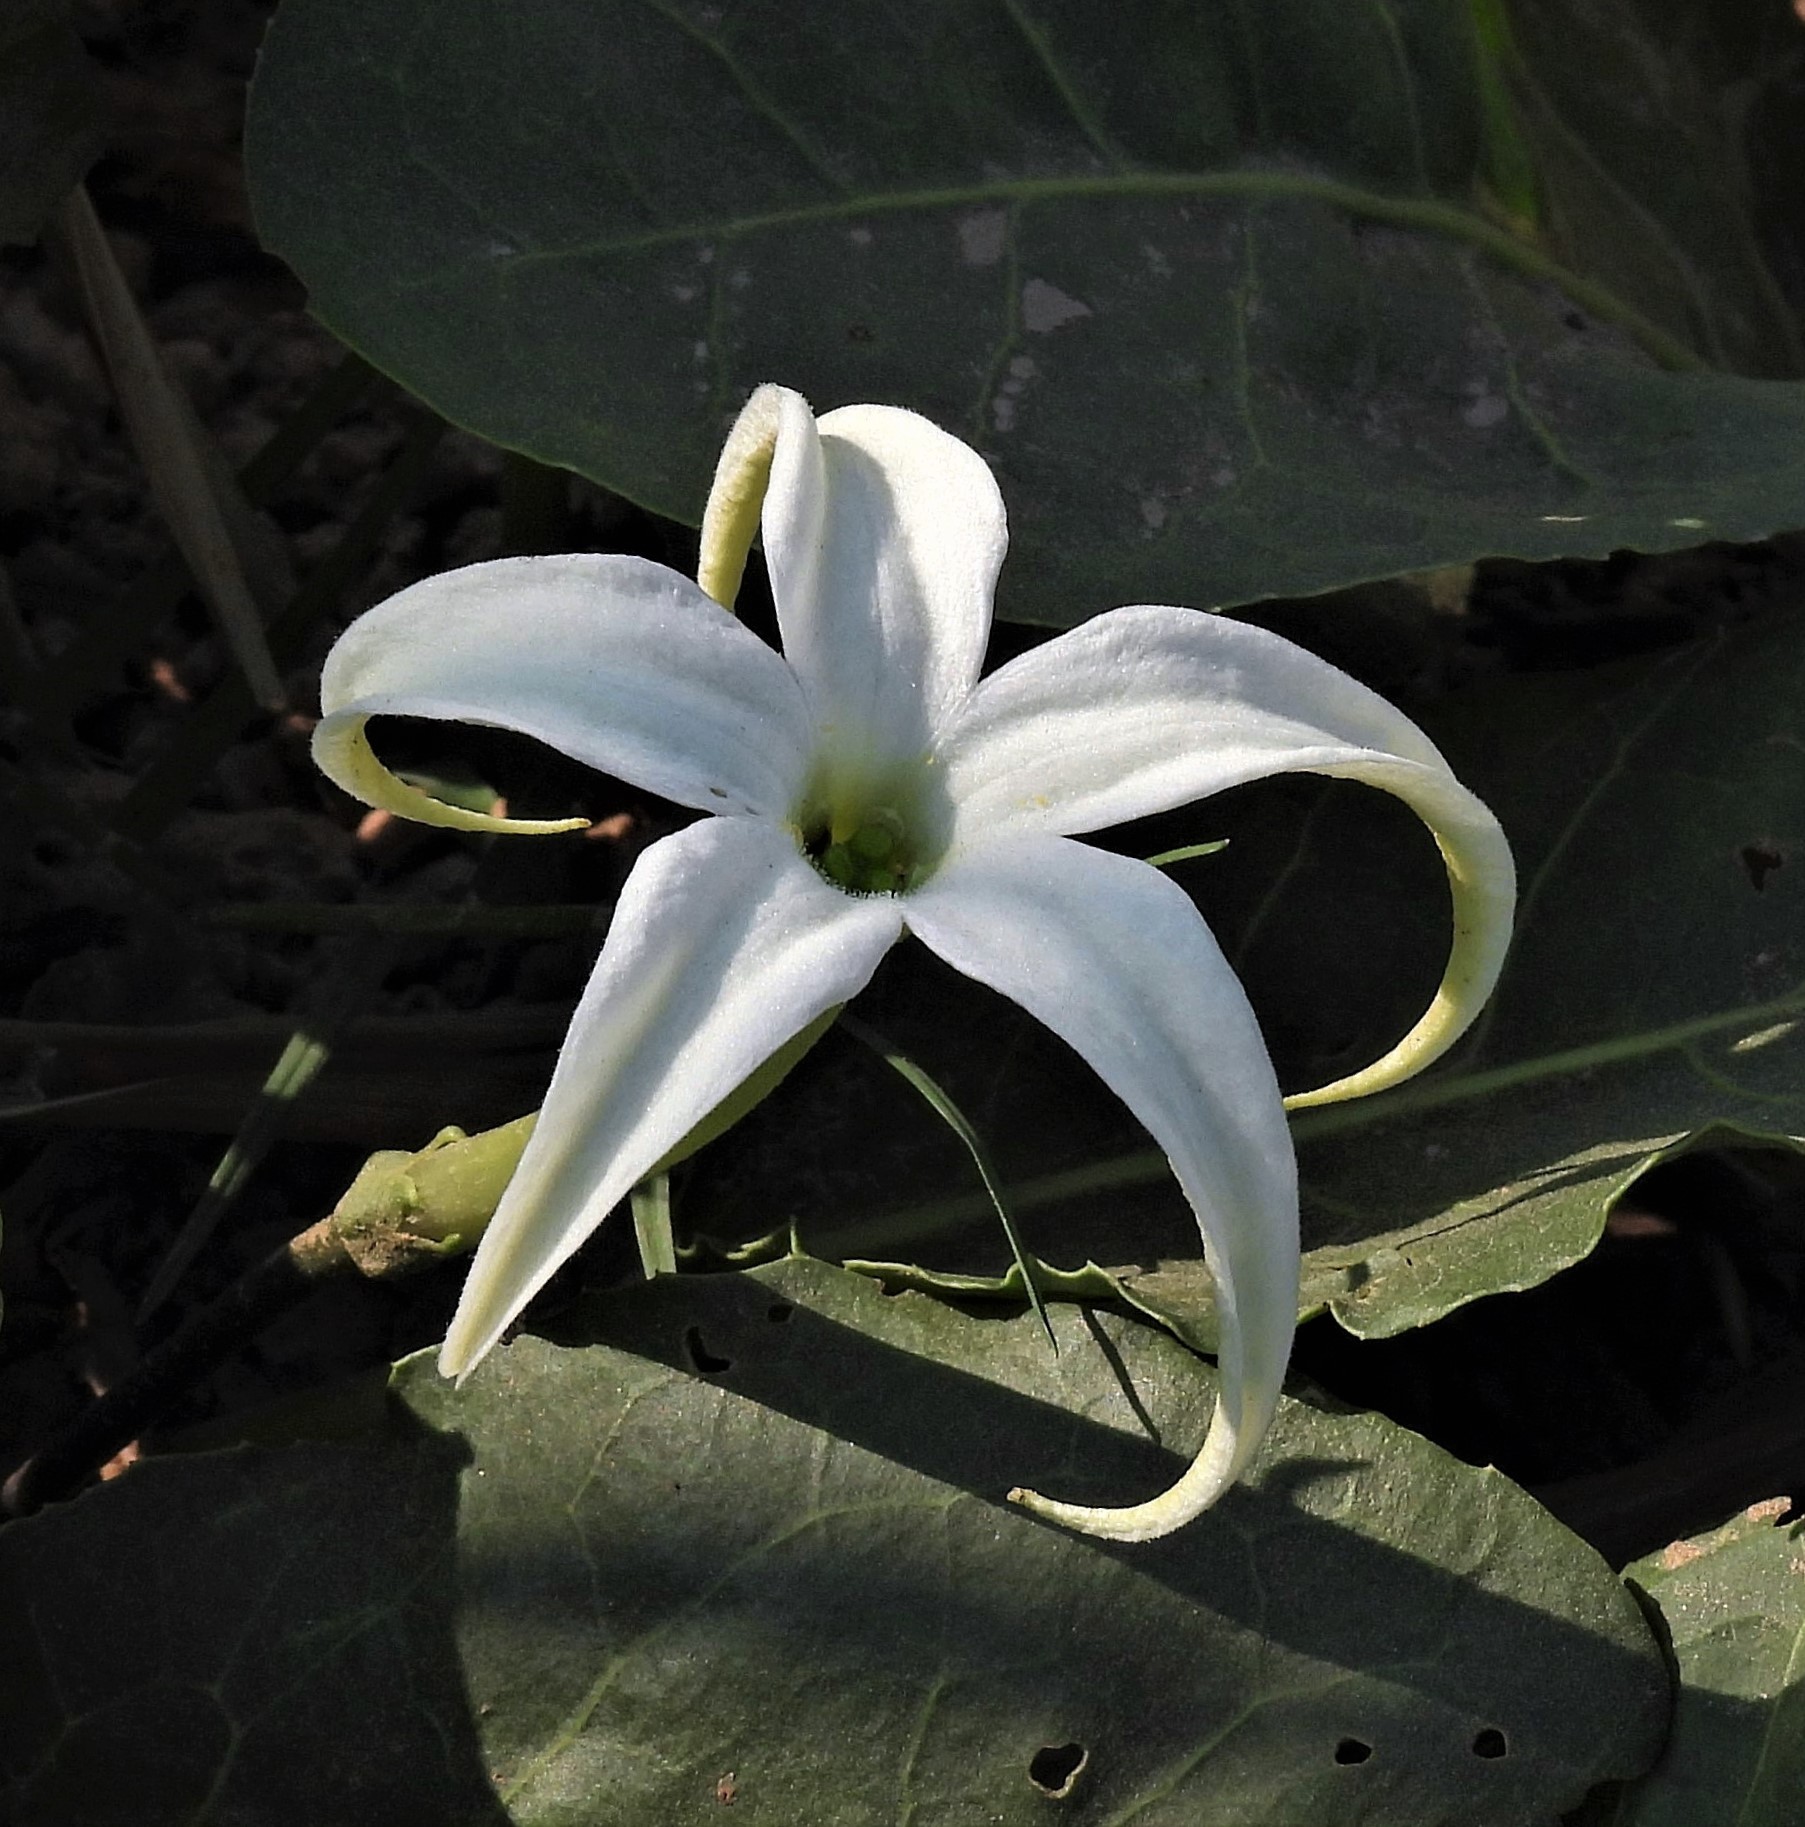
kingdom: Plantae
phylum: Tracheophyta
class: Magnoliopsida
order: Solanales
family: Solanaceae
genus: Jaborosa
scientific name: Jaborosa integrifolia
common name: Springblossom
